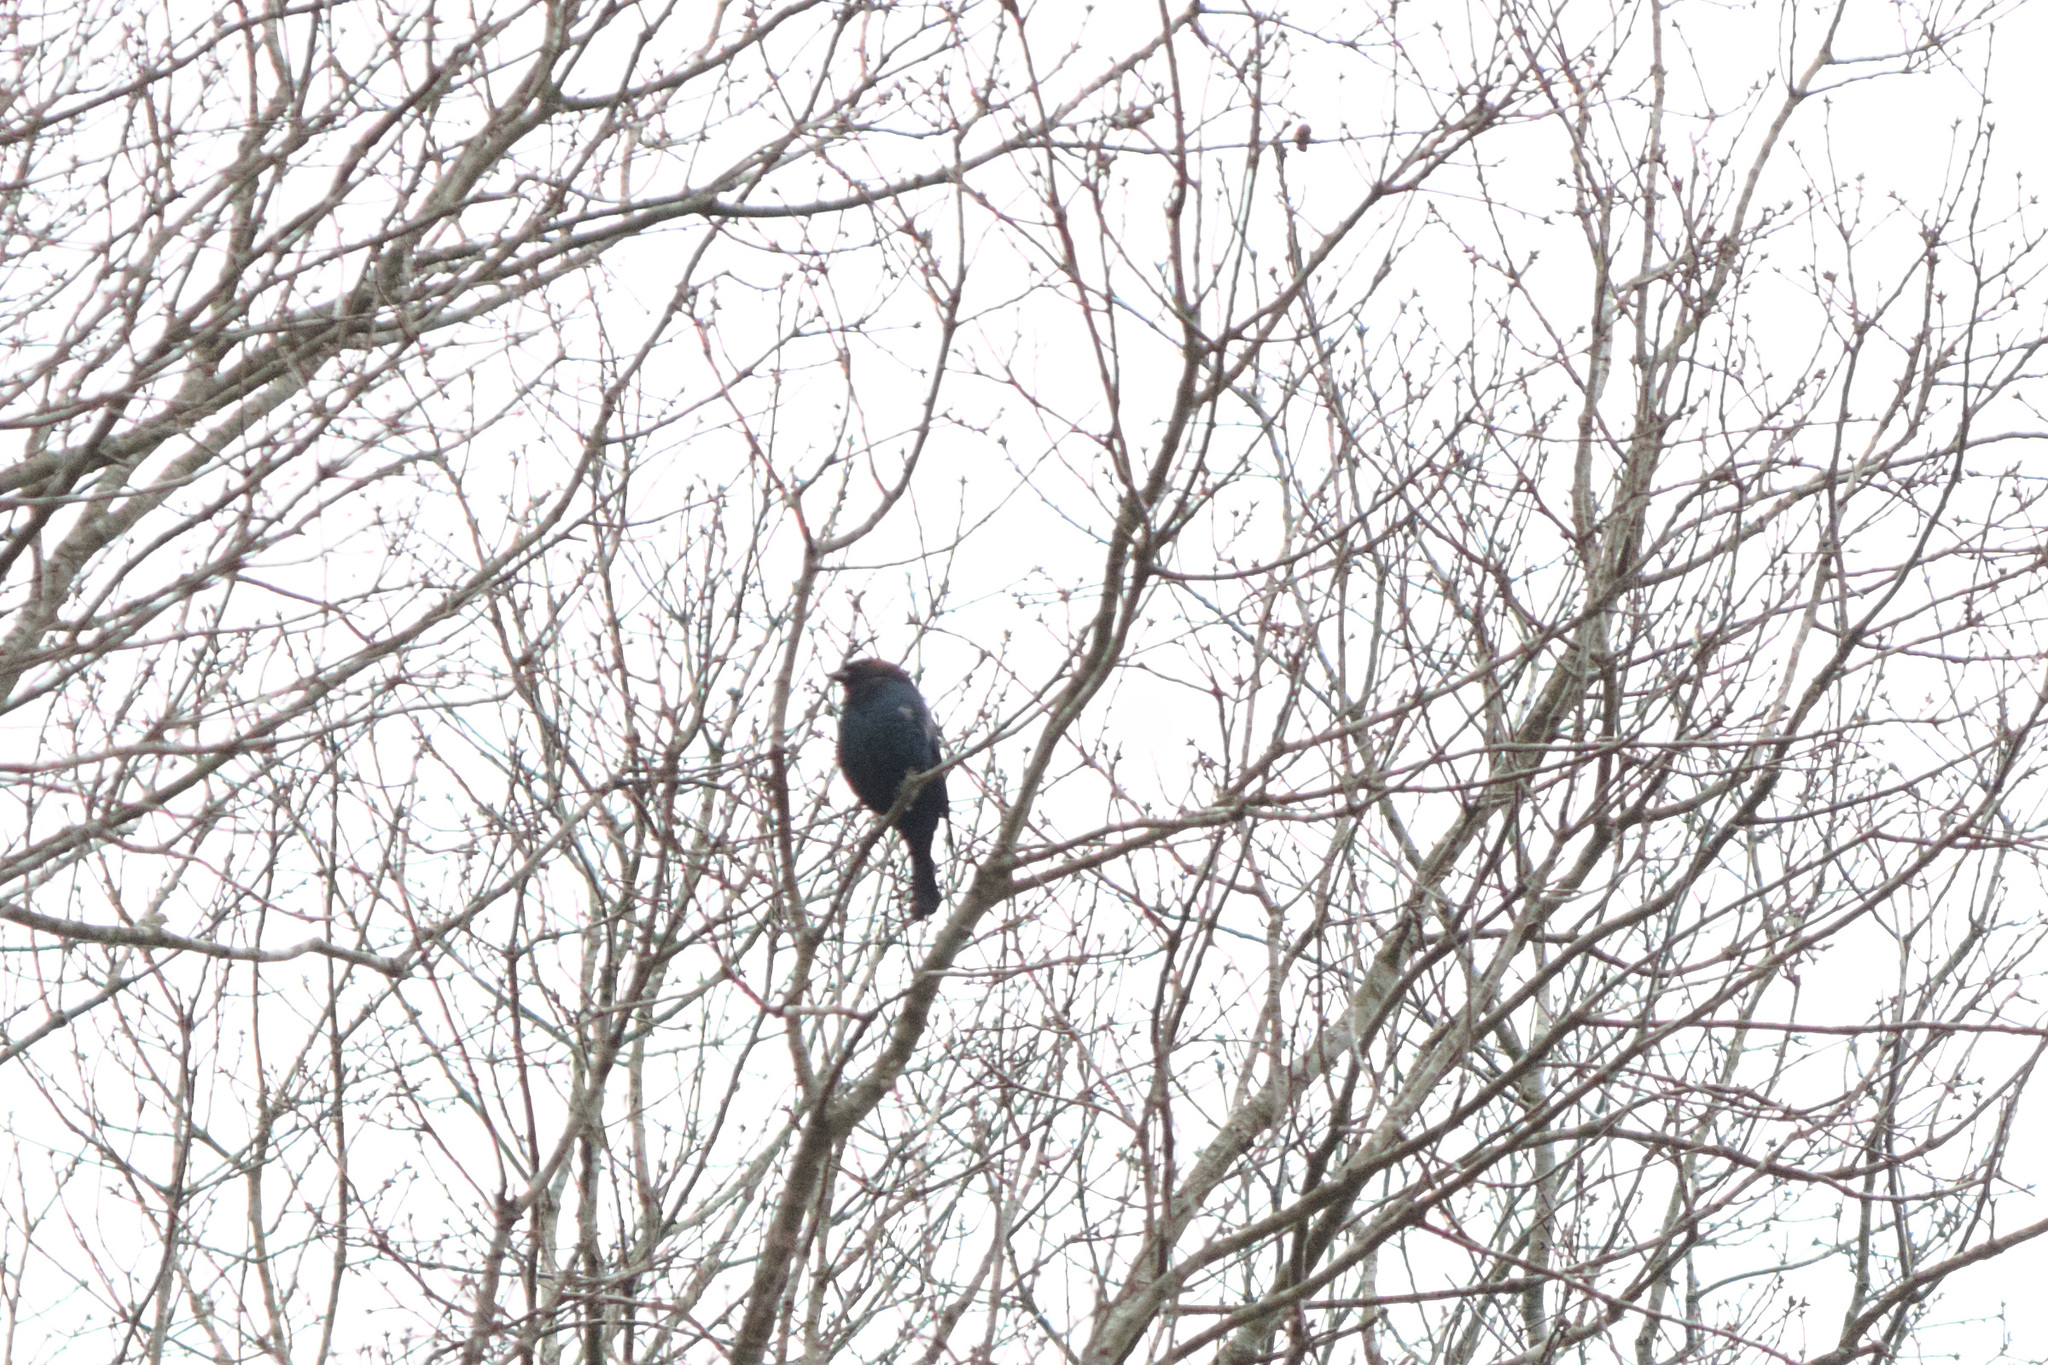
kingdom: Animalia
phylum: Chordata
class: Aves
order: Passeriformes
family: Icteridae
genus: Molothrus
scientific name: Molothrus ater
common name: Brown-headed cowbird
